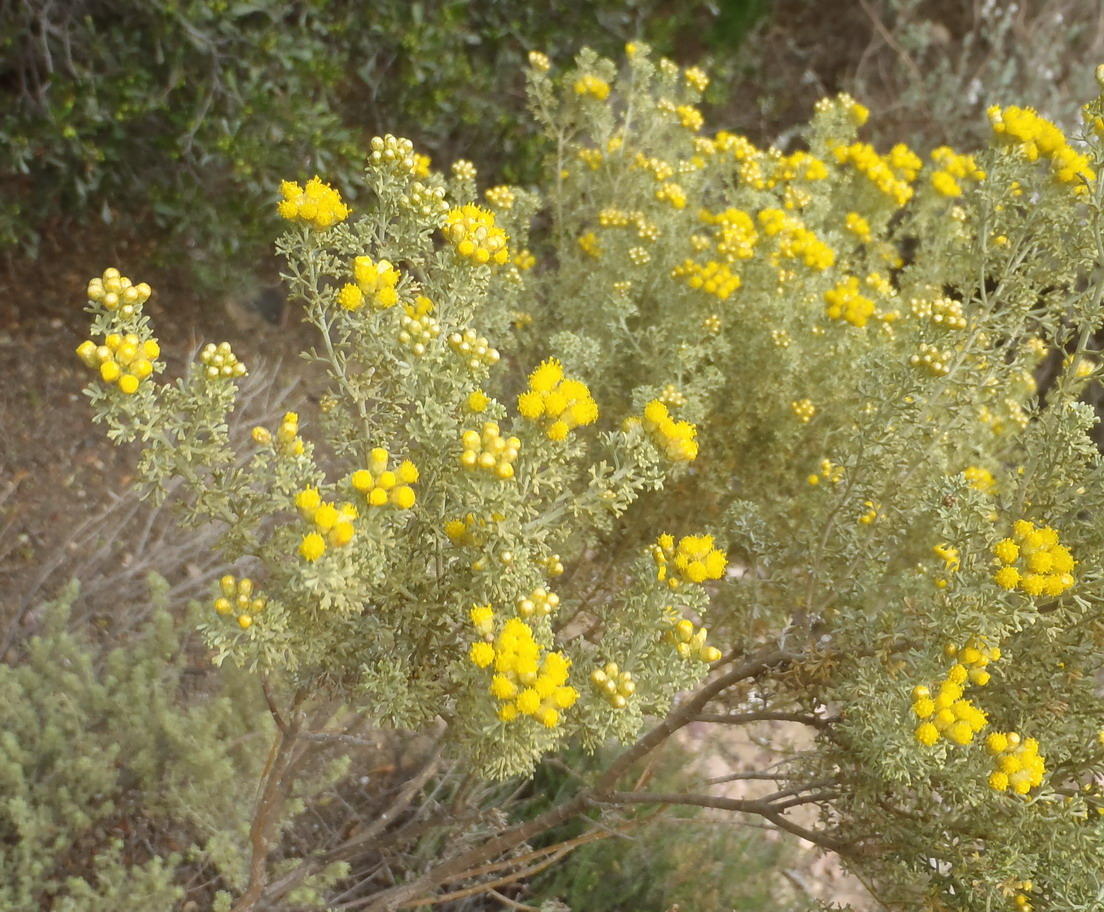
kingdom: Plantae
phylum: Tracheophyta
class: Magnoliopsida
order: Asterales
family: Asteraceae
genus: Pentzia
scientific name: Pentzia elegans
